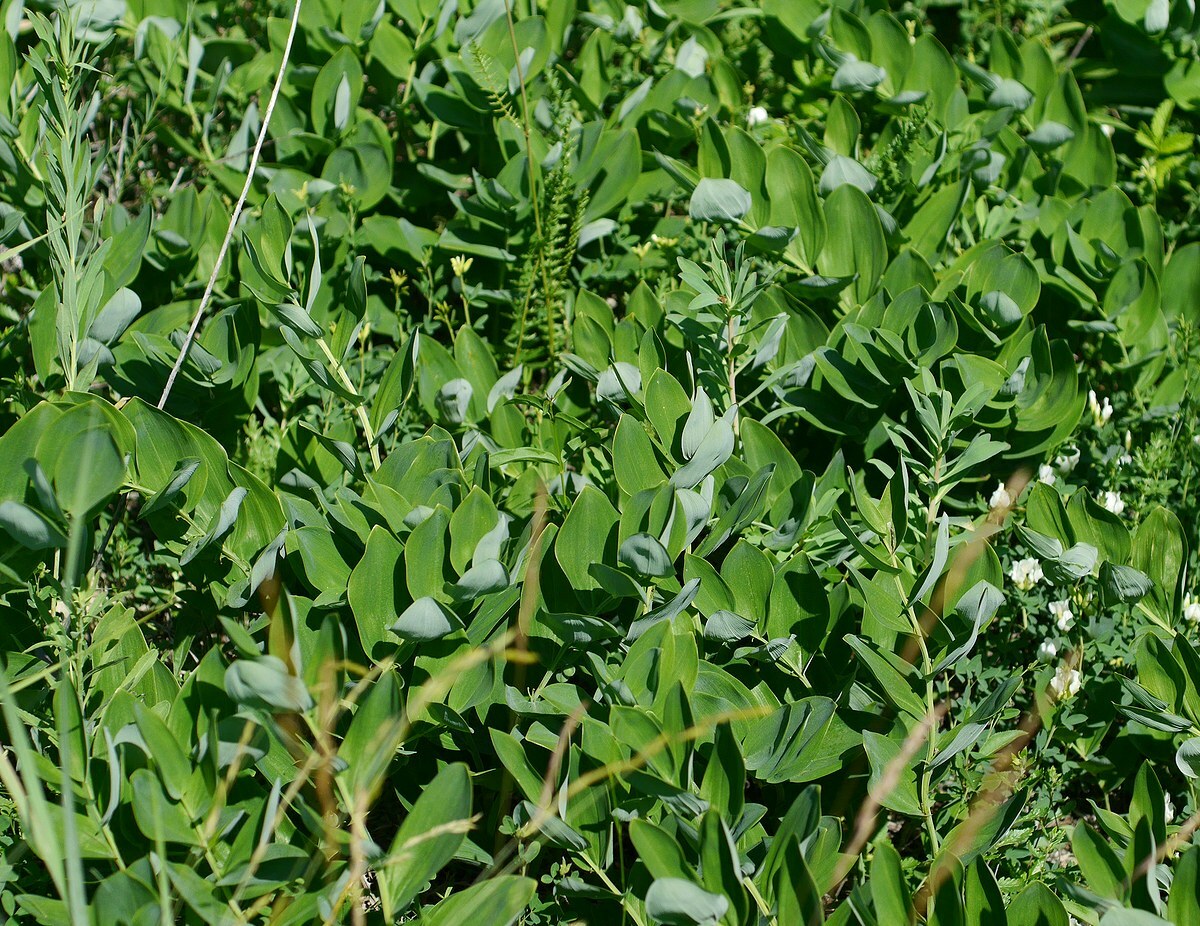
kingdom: Plantae
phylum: Tracheophyta
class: Liliopsida
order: Asparagales
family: Asparagaceae
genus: Polygonatum
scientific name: Polygonatum odoratum
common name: Angular solomon's-seal
